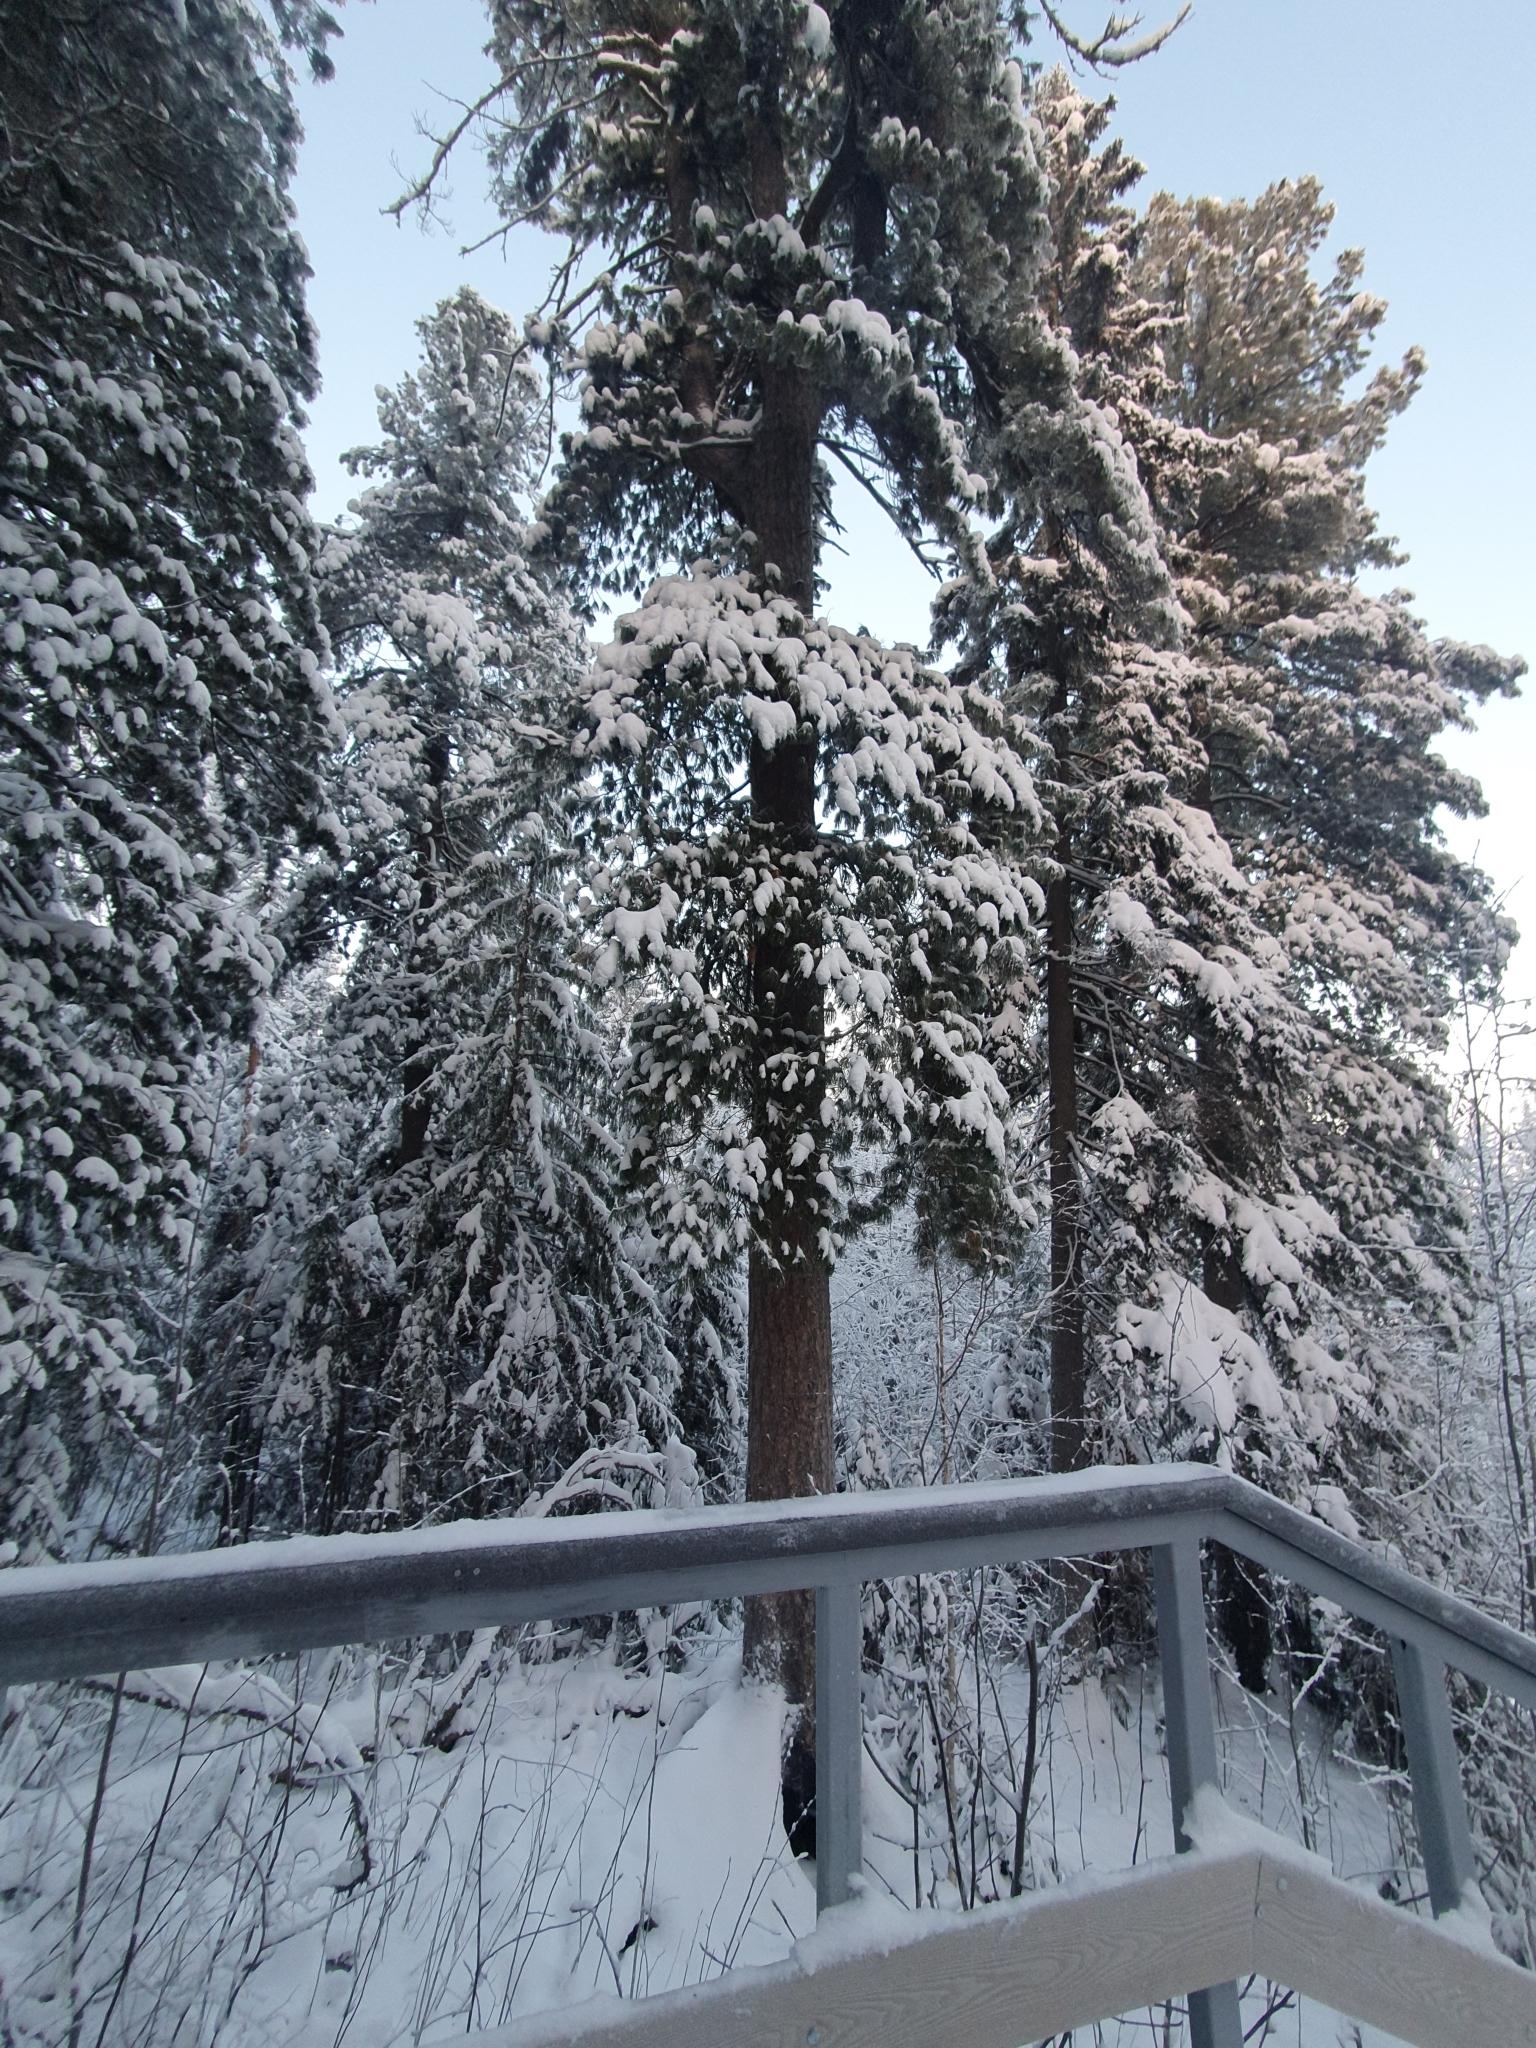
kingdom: Plantae
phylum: Tracheophyta
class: Pinopsida
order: Pinales
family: Pinaceae
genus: Pinus
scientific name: Pinus sibirica
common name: Siberian pine
